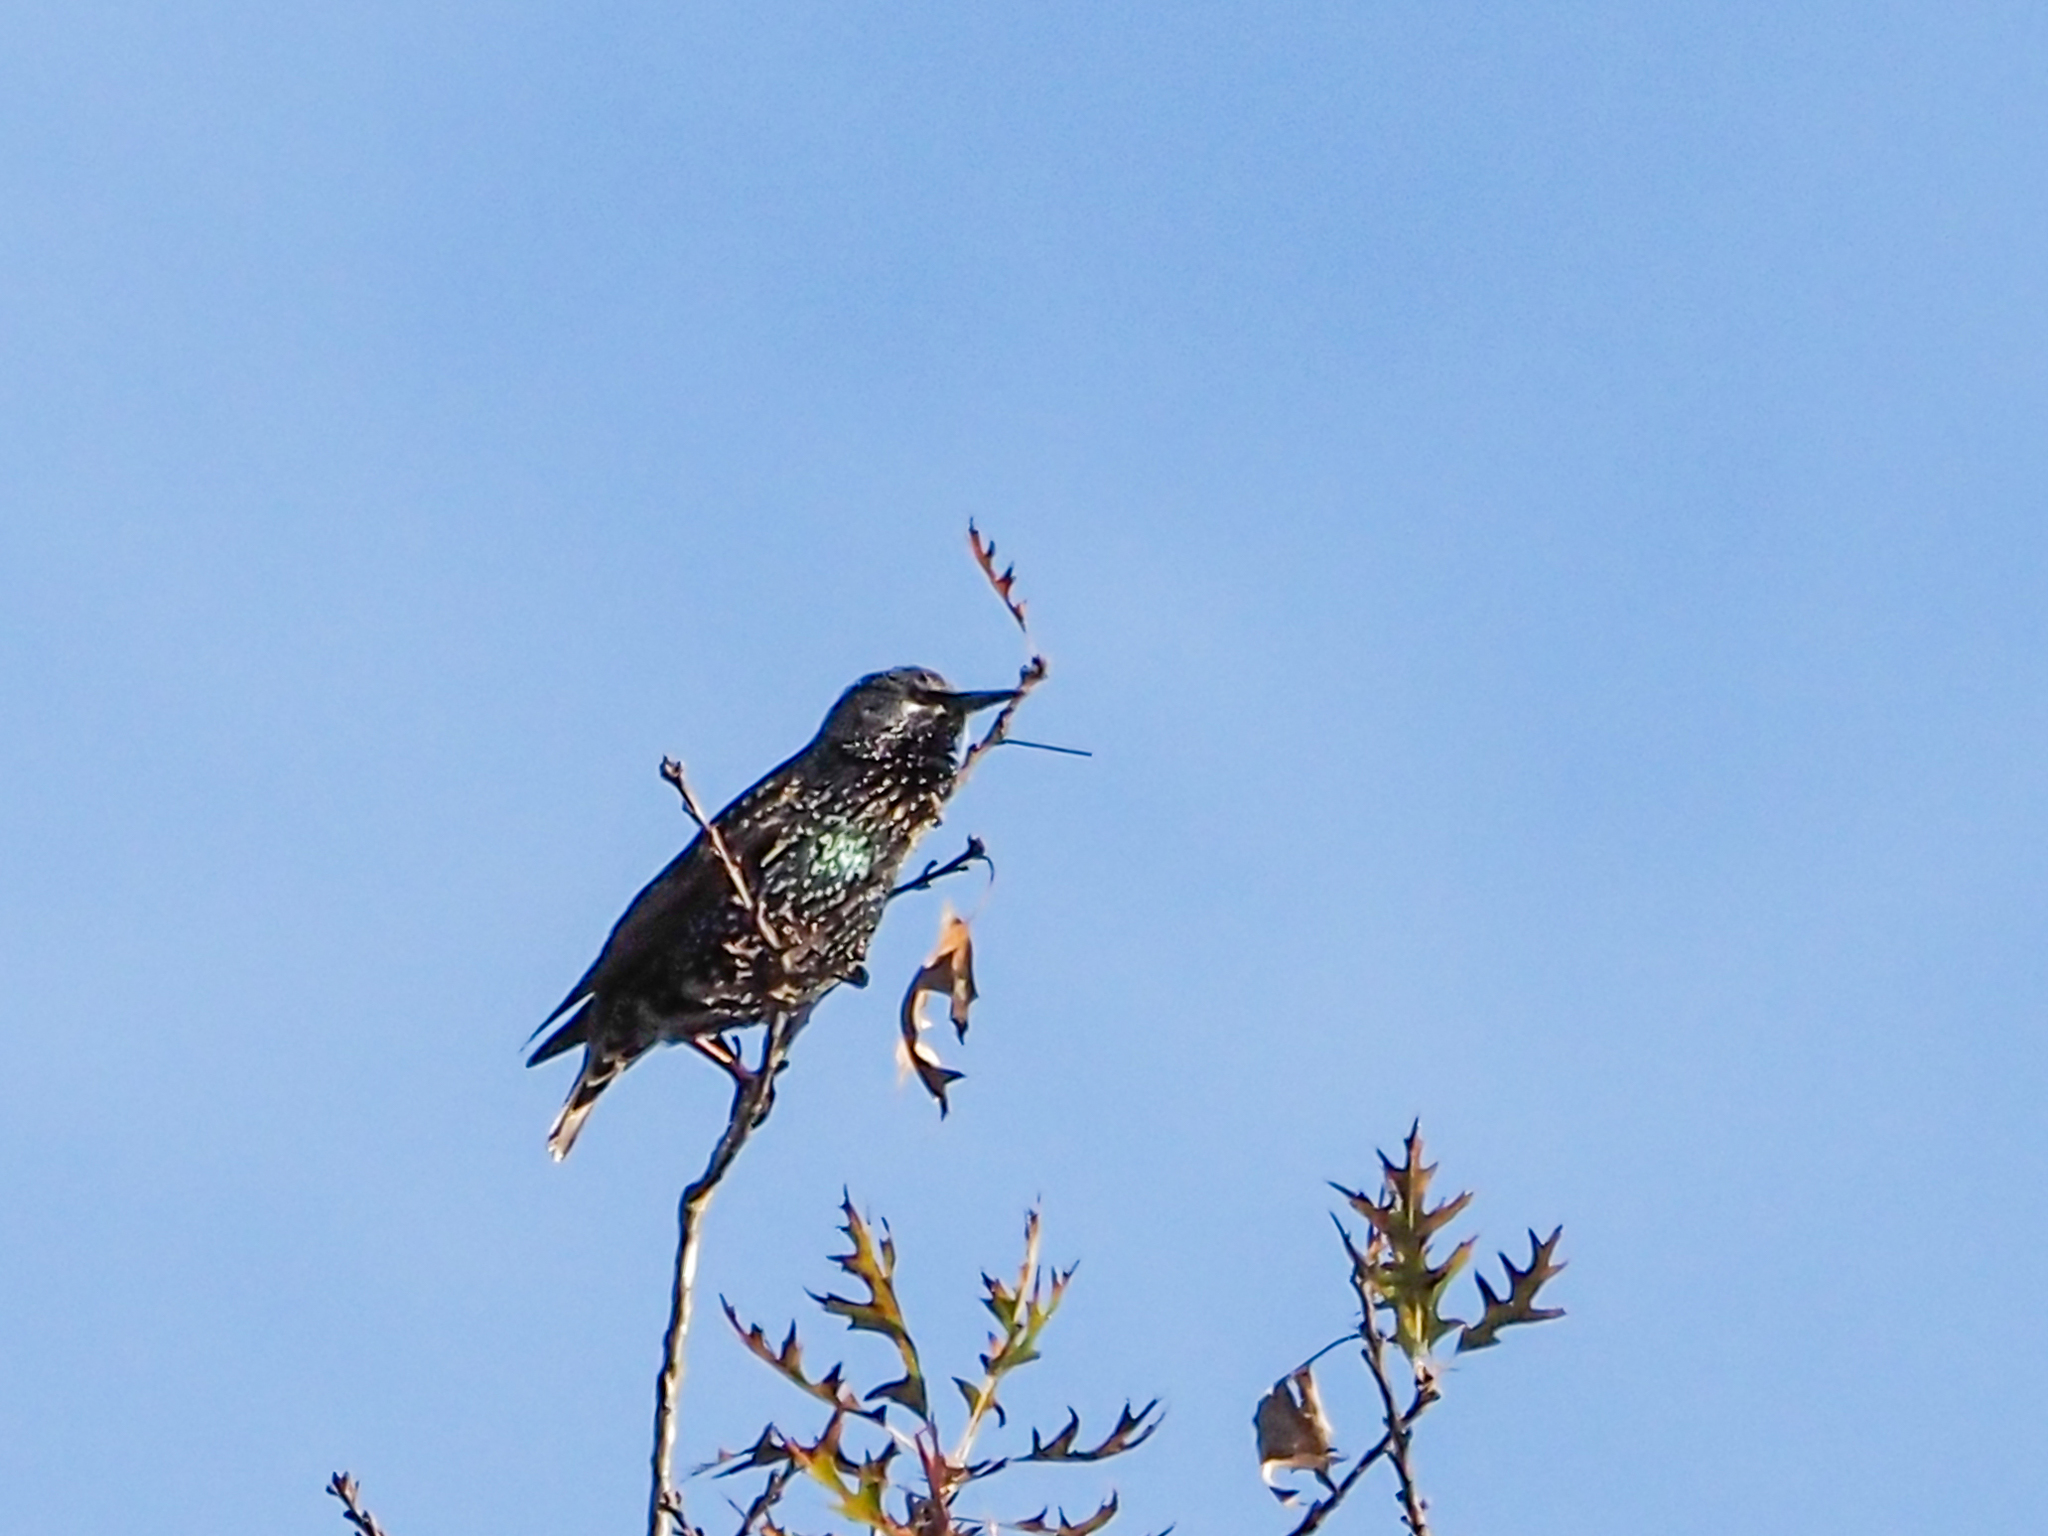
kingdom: Animalia
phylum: Chordata
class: Aves
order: Passeriformes
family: Sturnidae
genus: Sturnus
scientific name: Sturnus vulgaris
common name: Common starling
